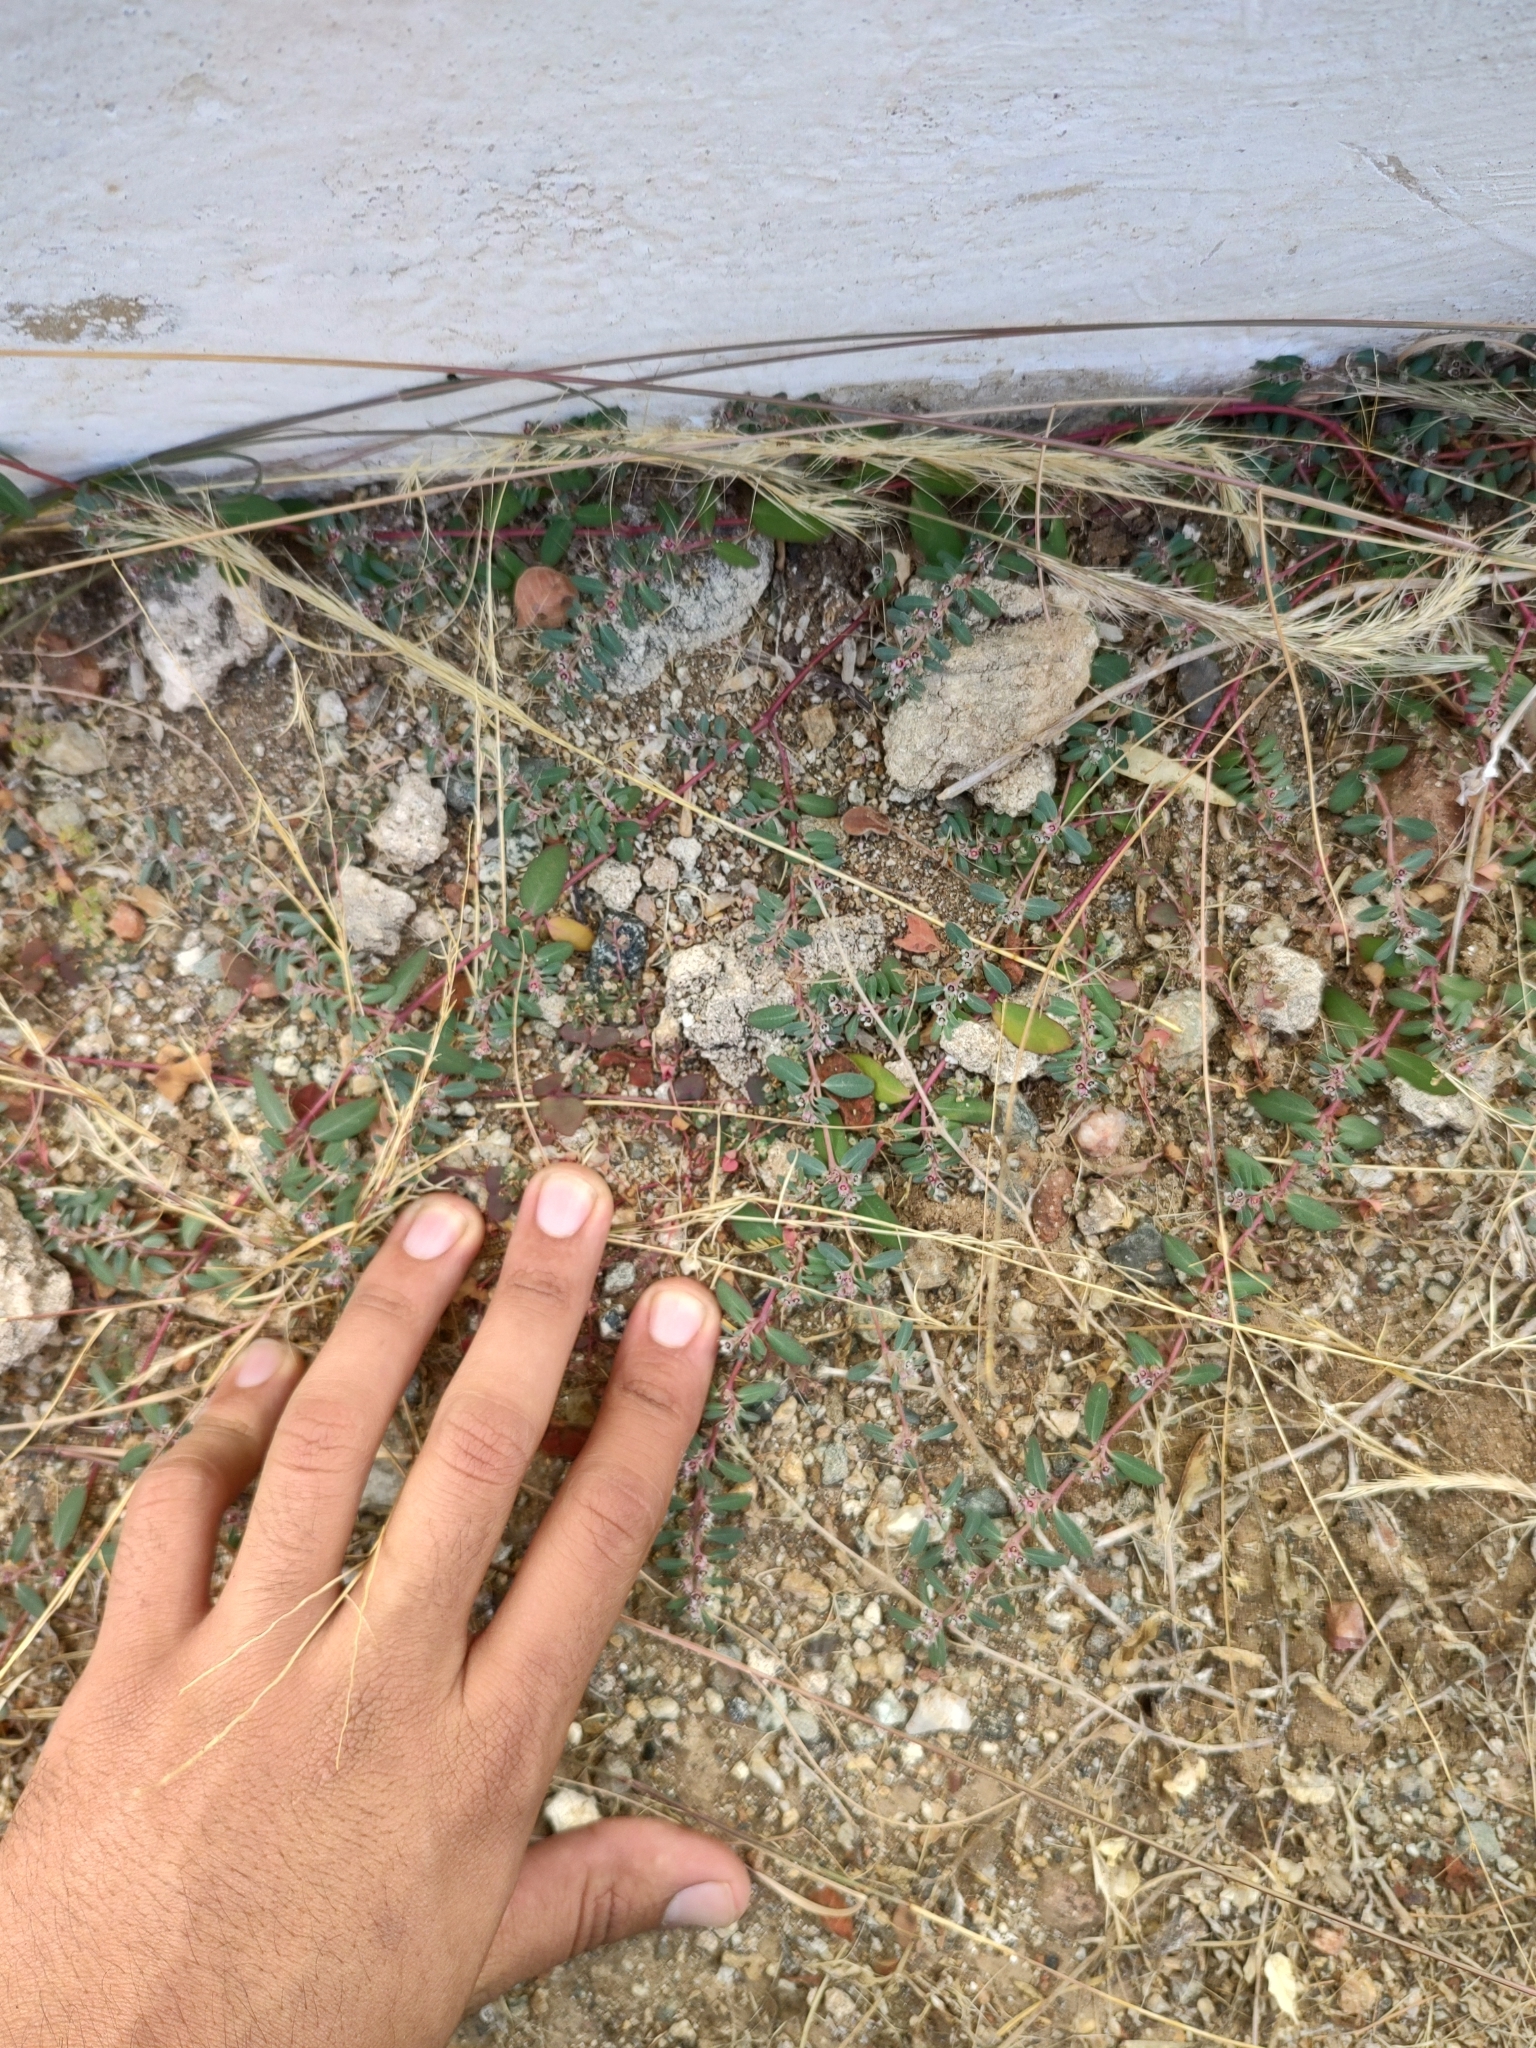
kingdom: Plantae
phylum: Tracheophyta
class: Magnoliopsida
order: Malpighiales
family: Euphorbiaceae
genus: Euphorbia
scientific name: Euphorbia pediculifera
